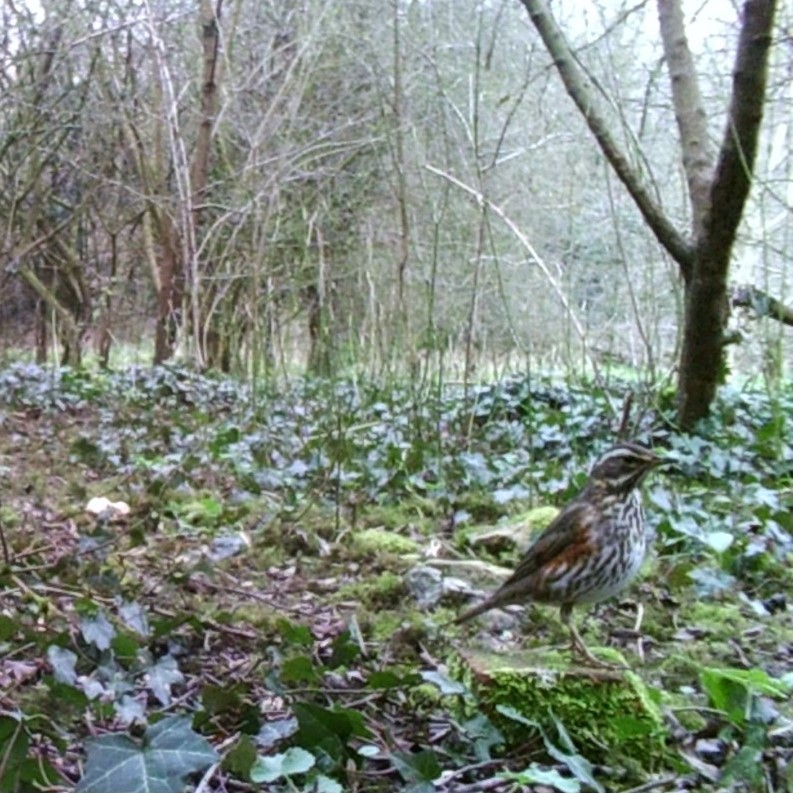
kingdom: Animalia
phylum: Chordata
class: Aves
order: Passeriformes
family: Turdidae
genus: Turdus
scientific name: Turdus iliacus
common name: Redwing
